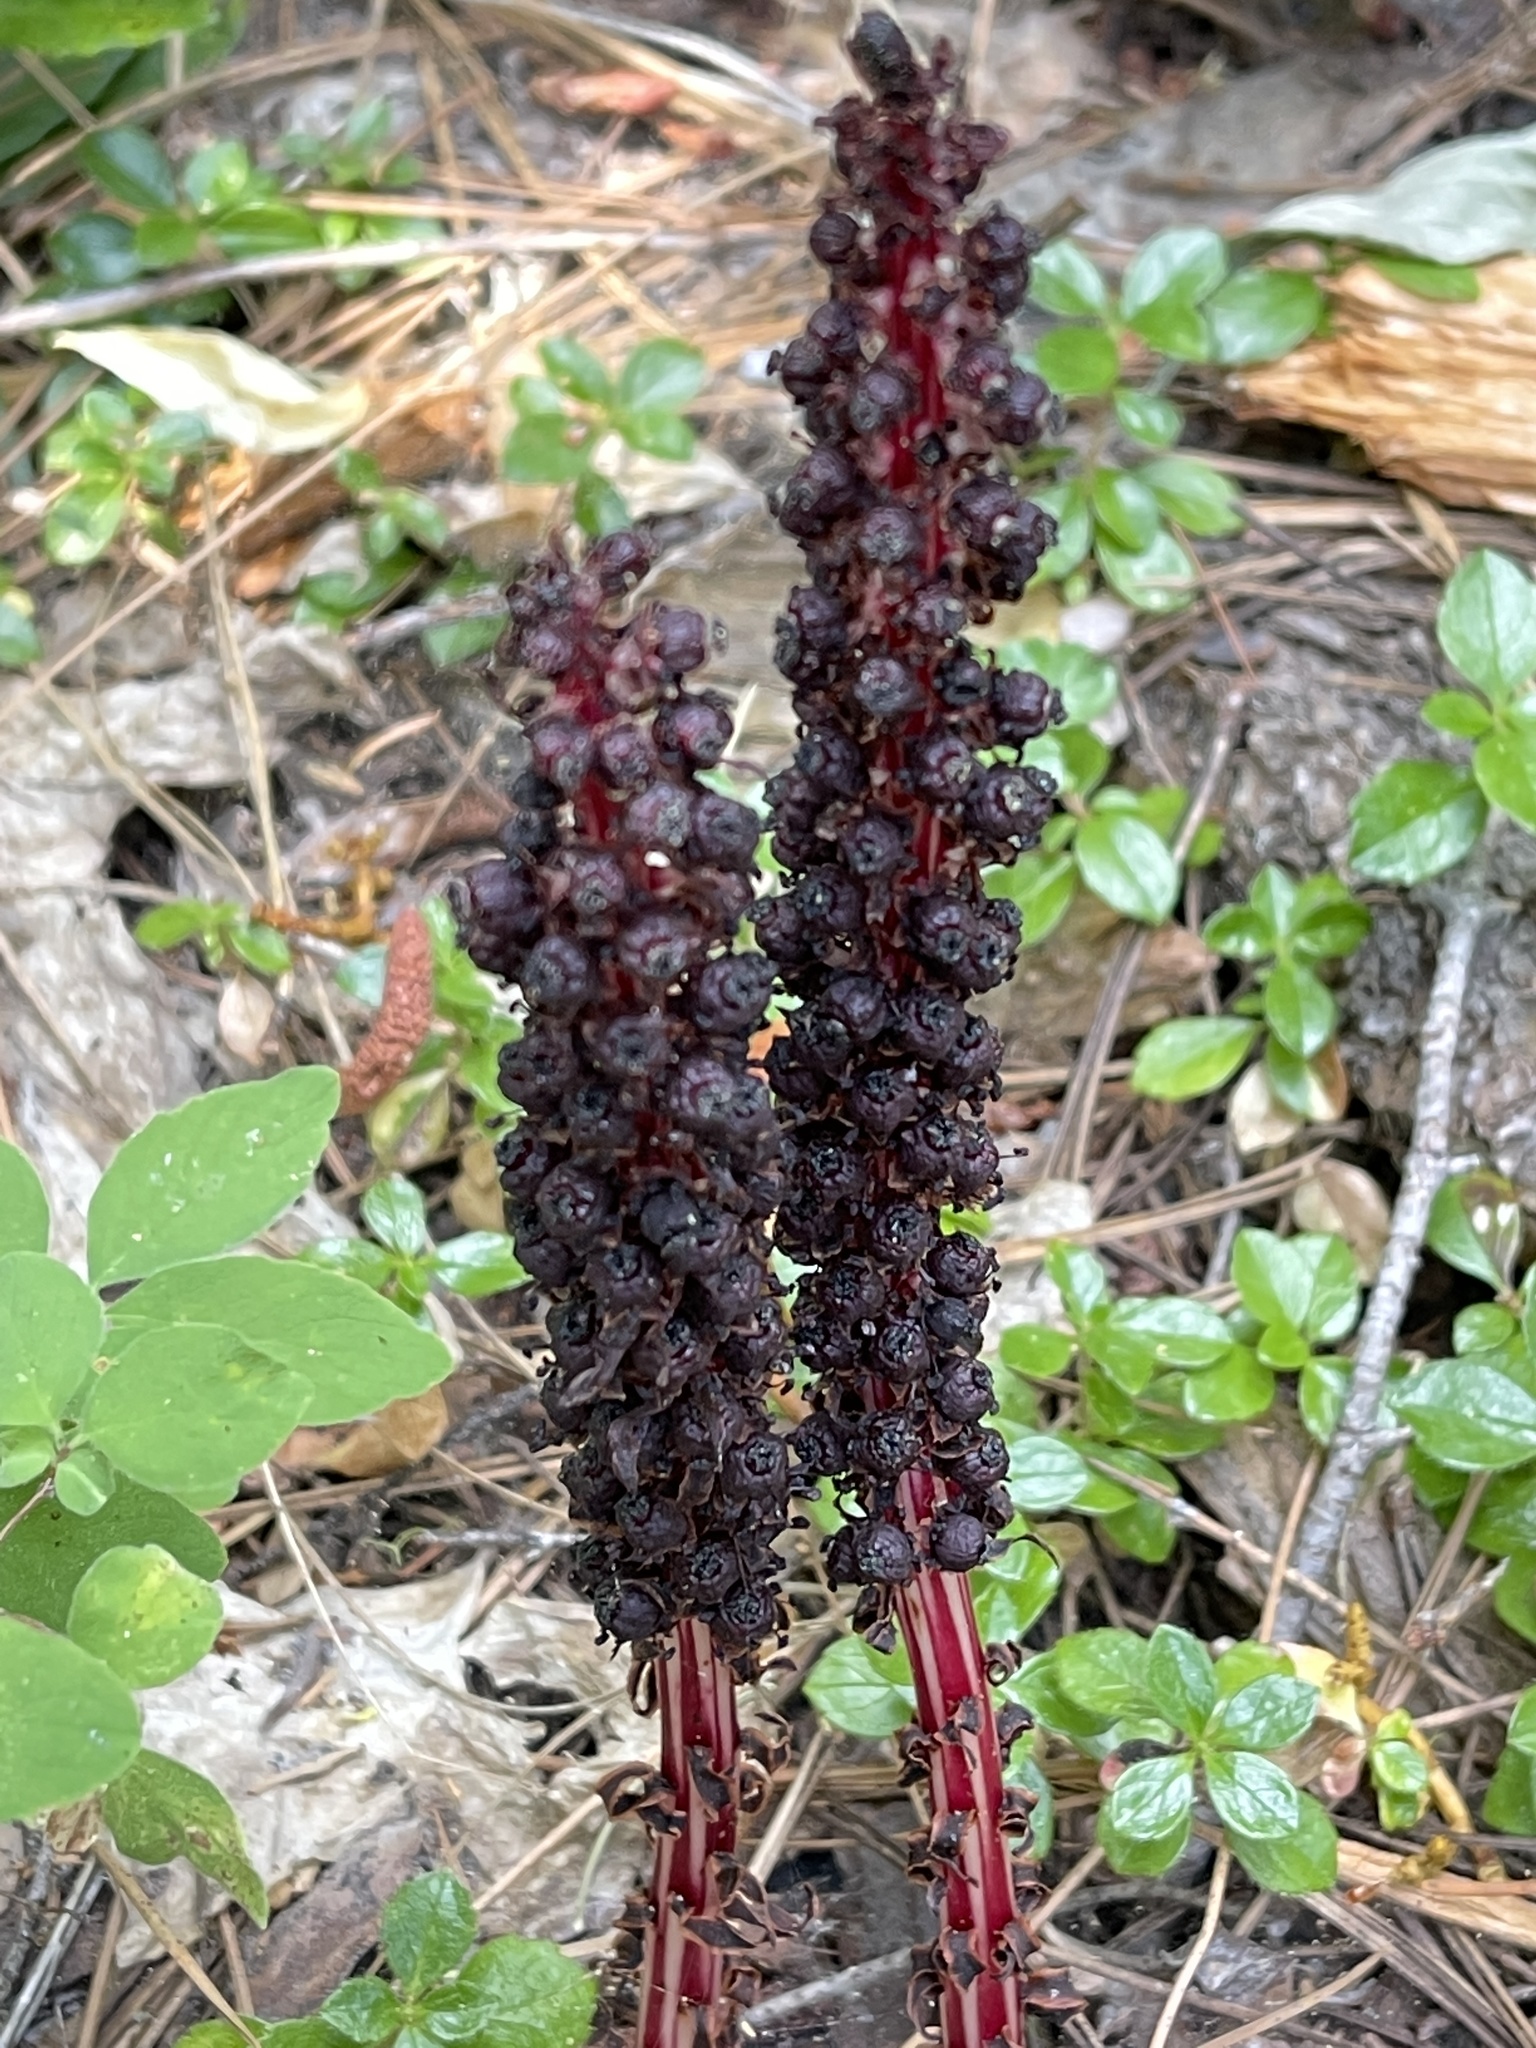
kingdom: Plantae
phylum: Tracheophyta
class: Magnoliopsida
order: Ericales
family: Ericaceae
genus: Allotropa
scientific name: Allotropa virgata
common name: Candy-striped allotropa
